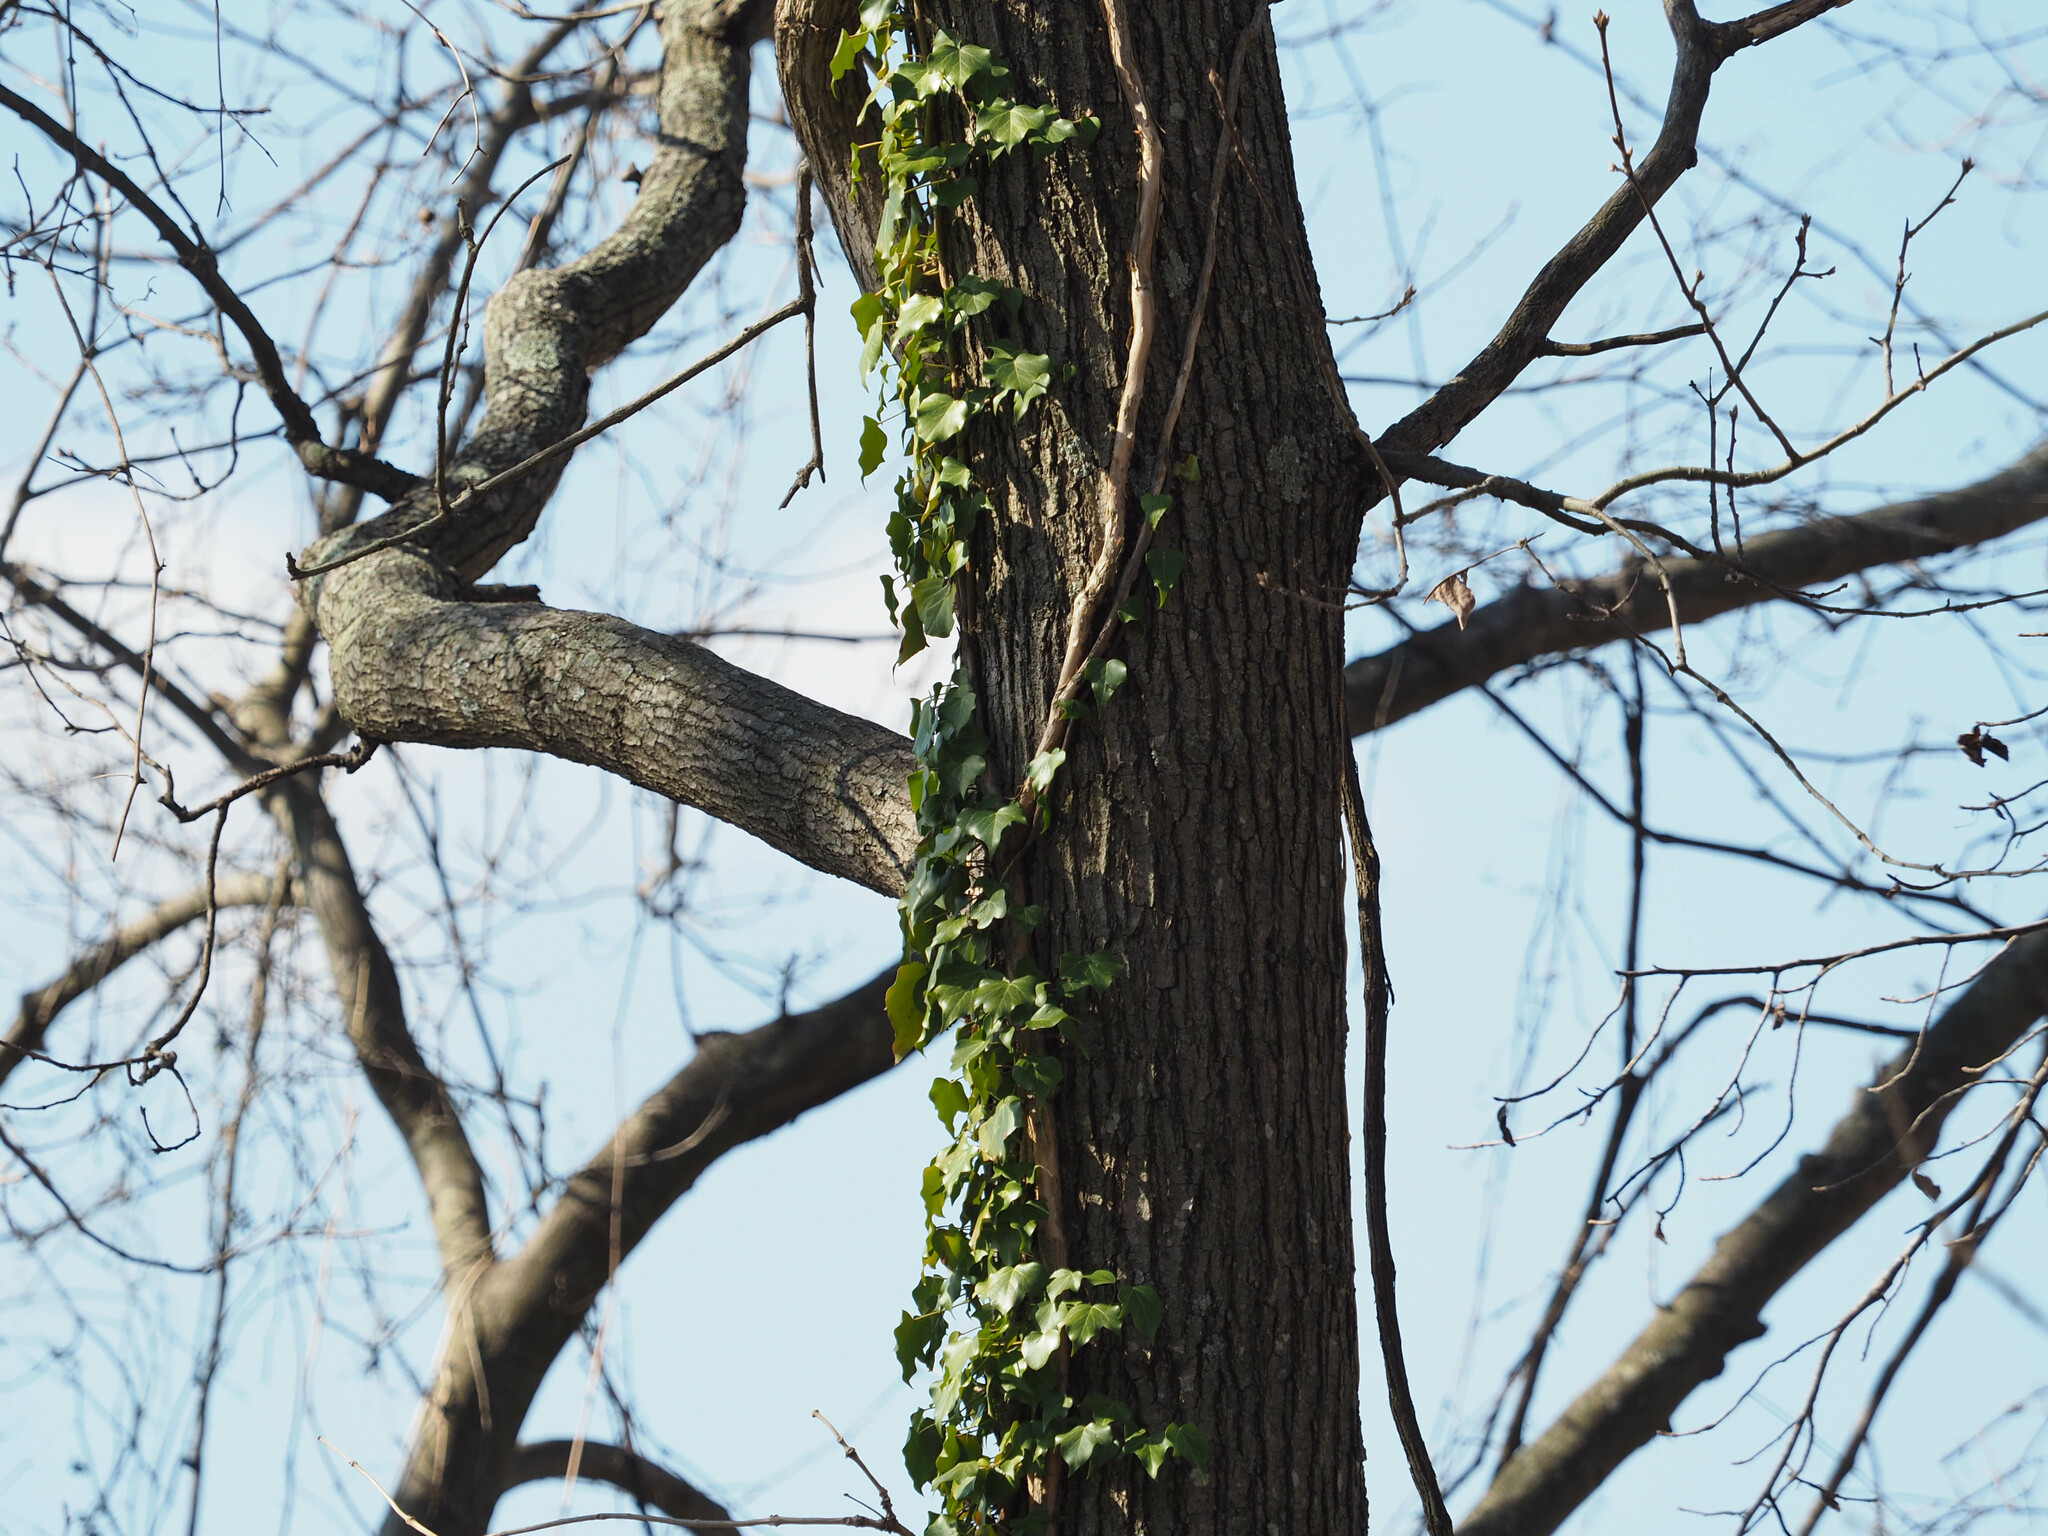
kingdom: Plantae
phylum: Tracheophyta
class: Magnoliopsida
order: Apiales
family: Araliaceae
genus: Hedera
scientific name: Hedera helix
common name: Ivy
